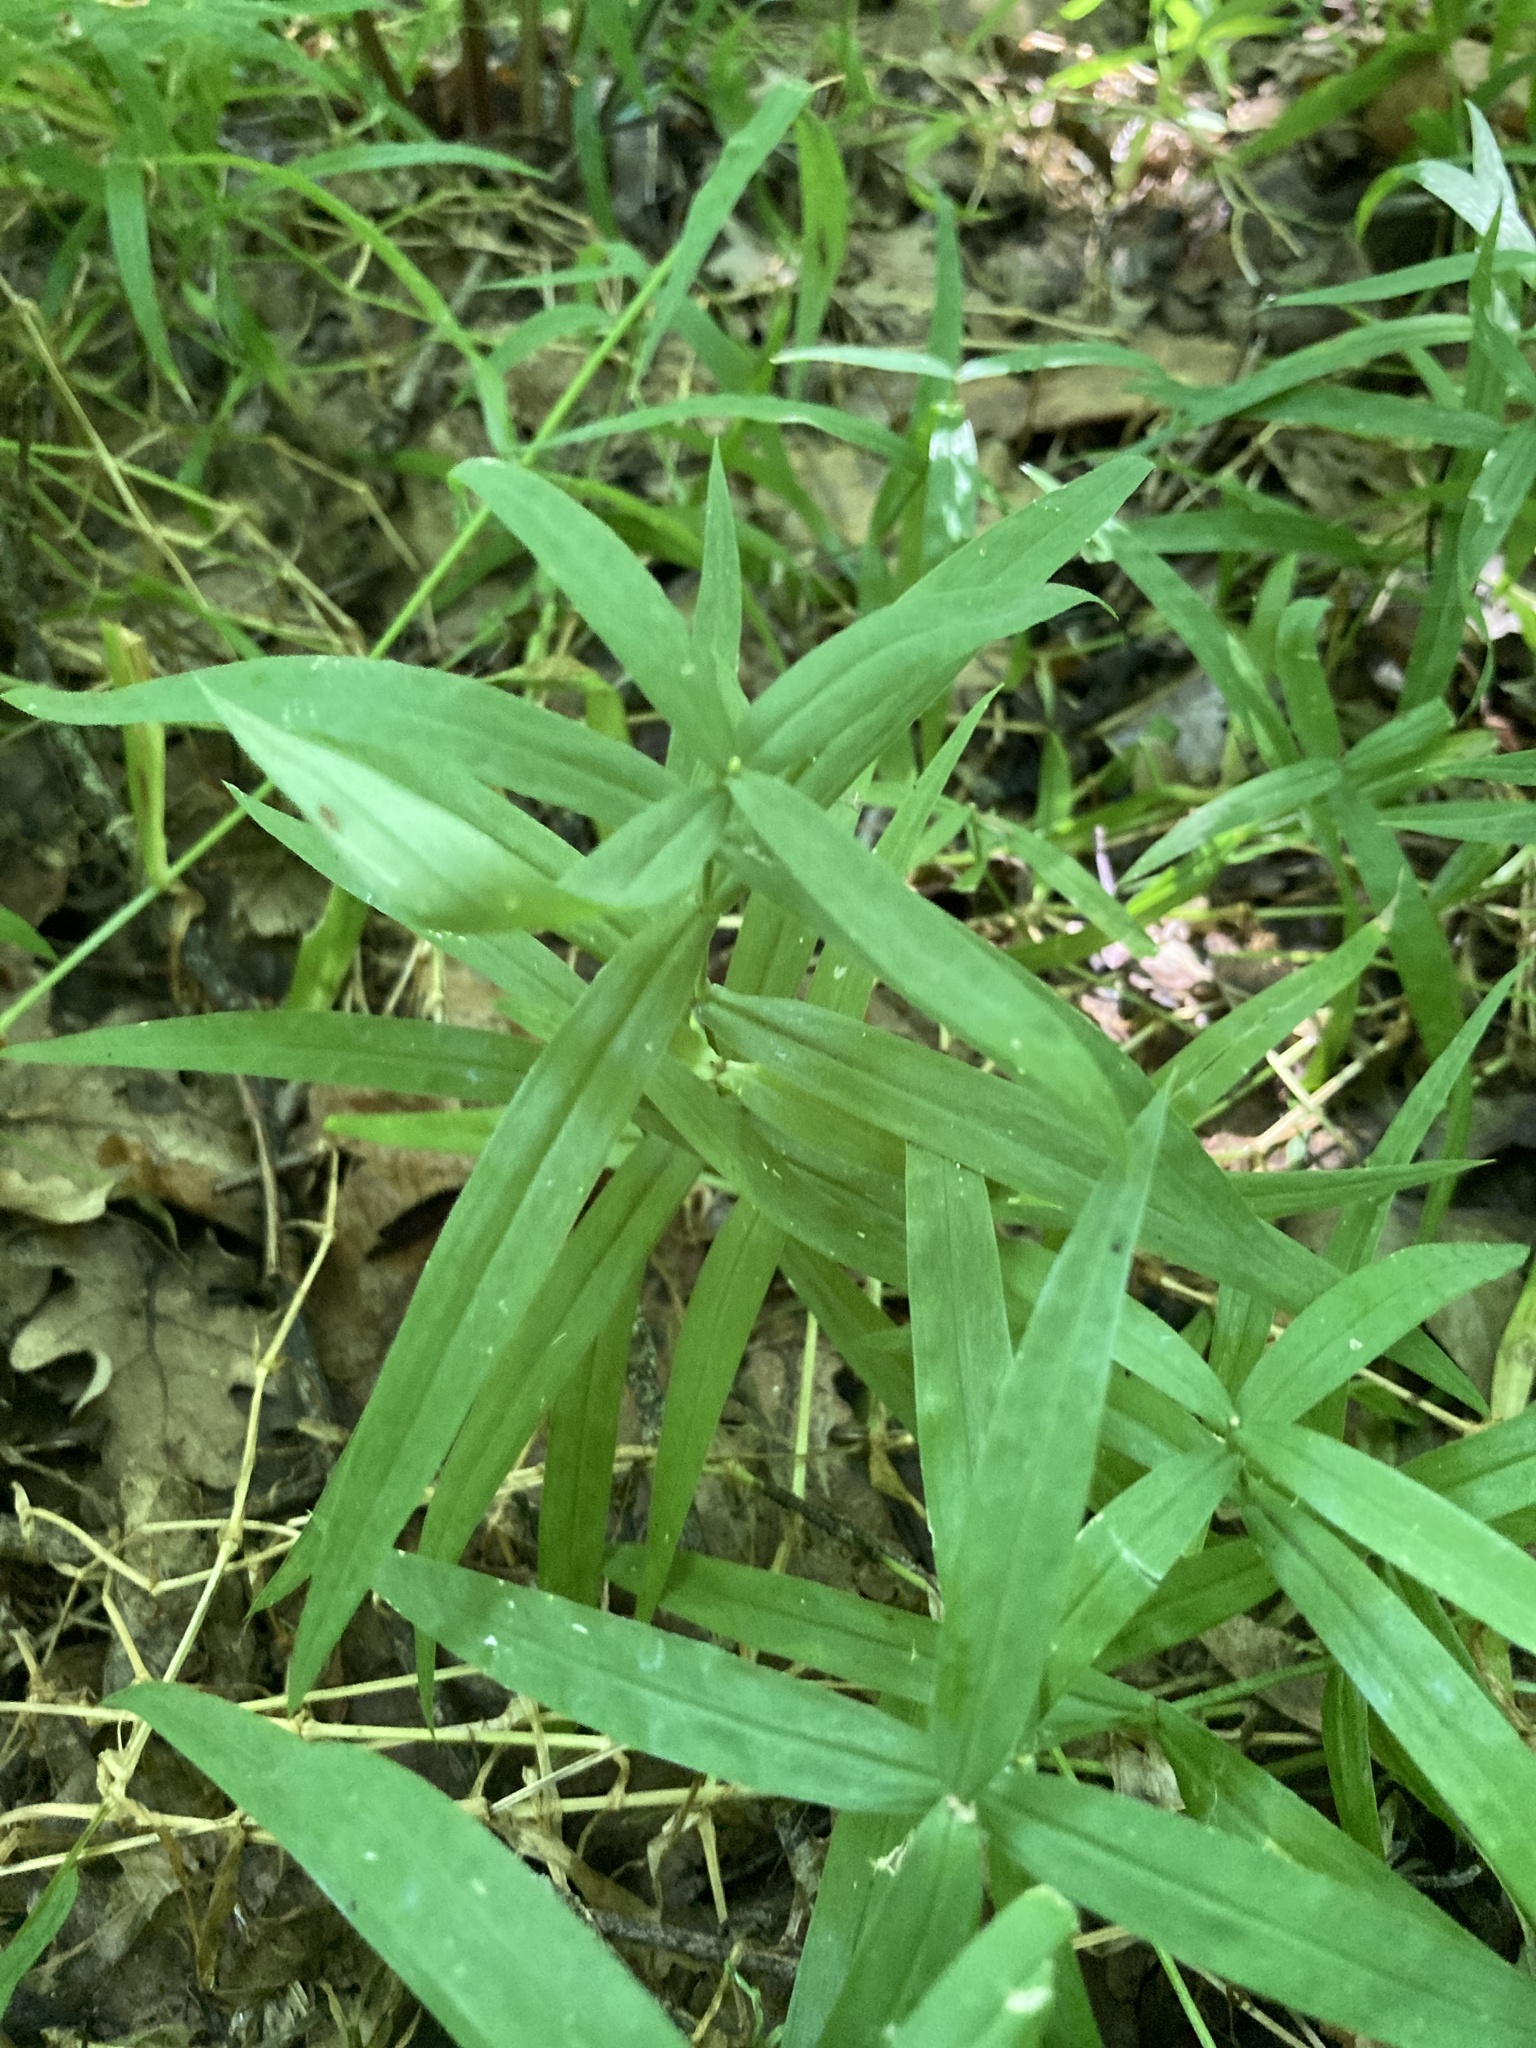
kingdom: Plantae
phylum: Tracheophyta
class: Magnoliopsida
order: Caryophyllales
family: Caryophyllaceae
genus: Rabelera
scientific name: Rabelera holostea
